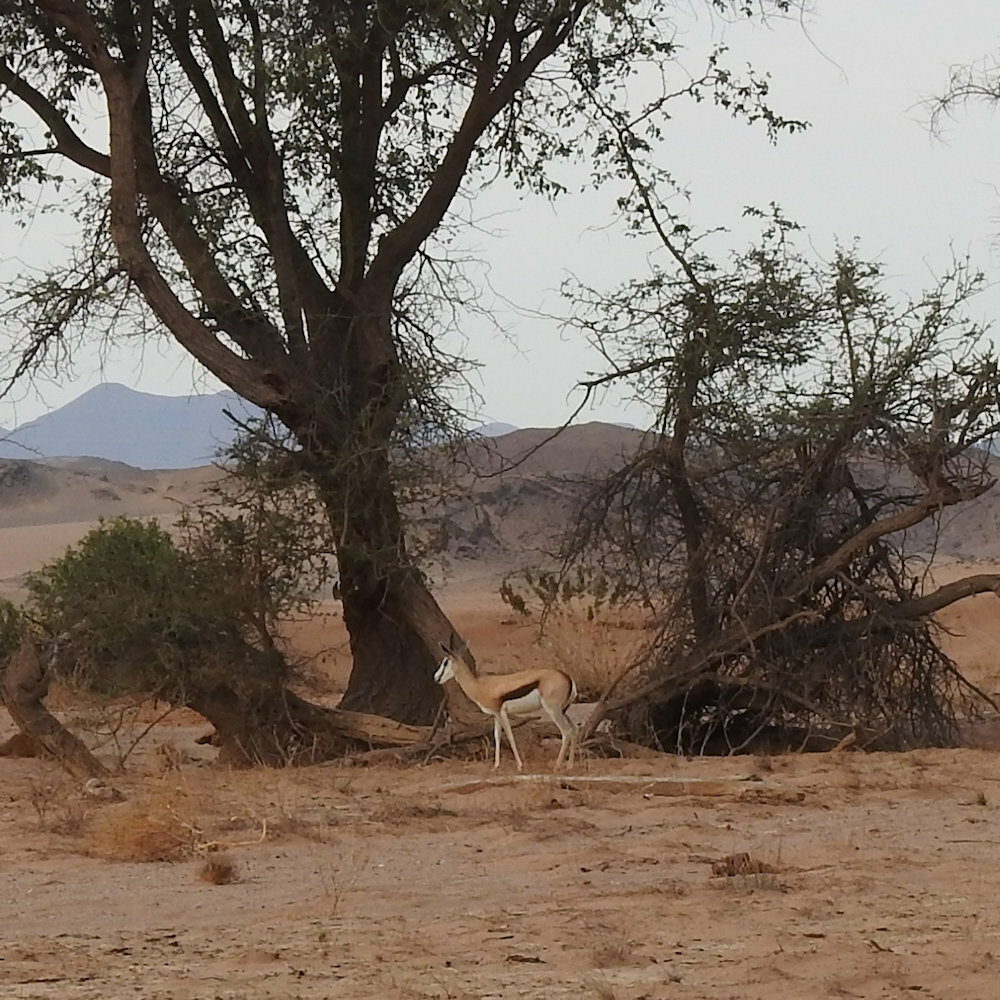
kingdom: Animalia
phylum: Chordata
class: Mammalia
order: Artiodactyla
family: Bovidae
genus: Antidorcas
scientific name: Antidorcas marsupialis
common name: Springbok
